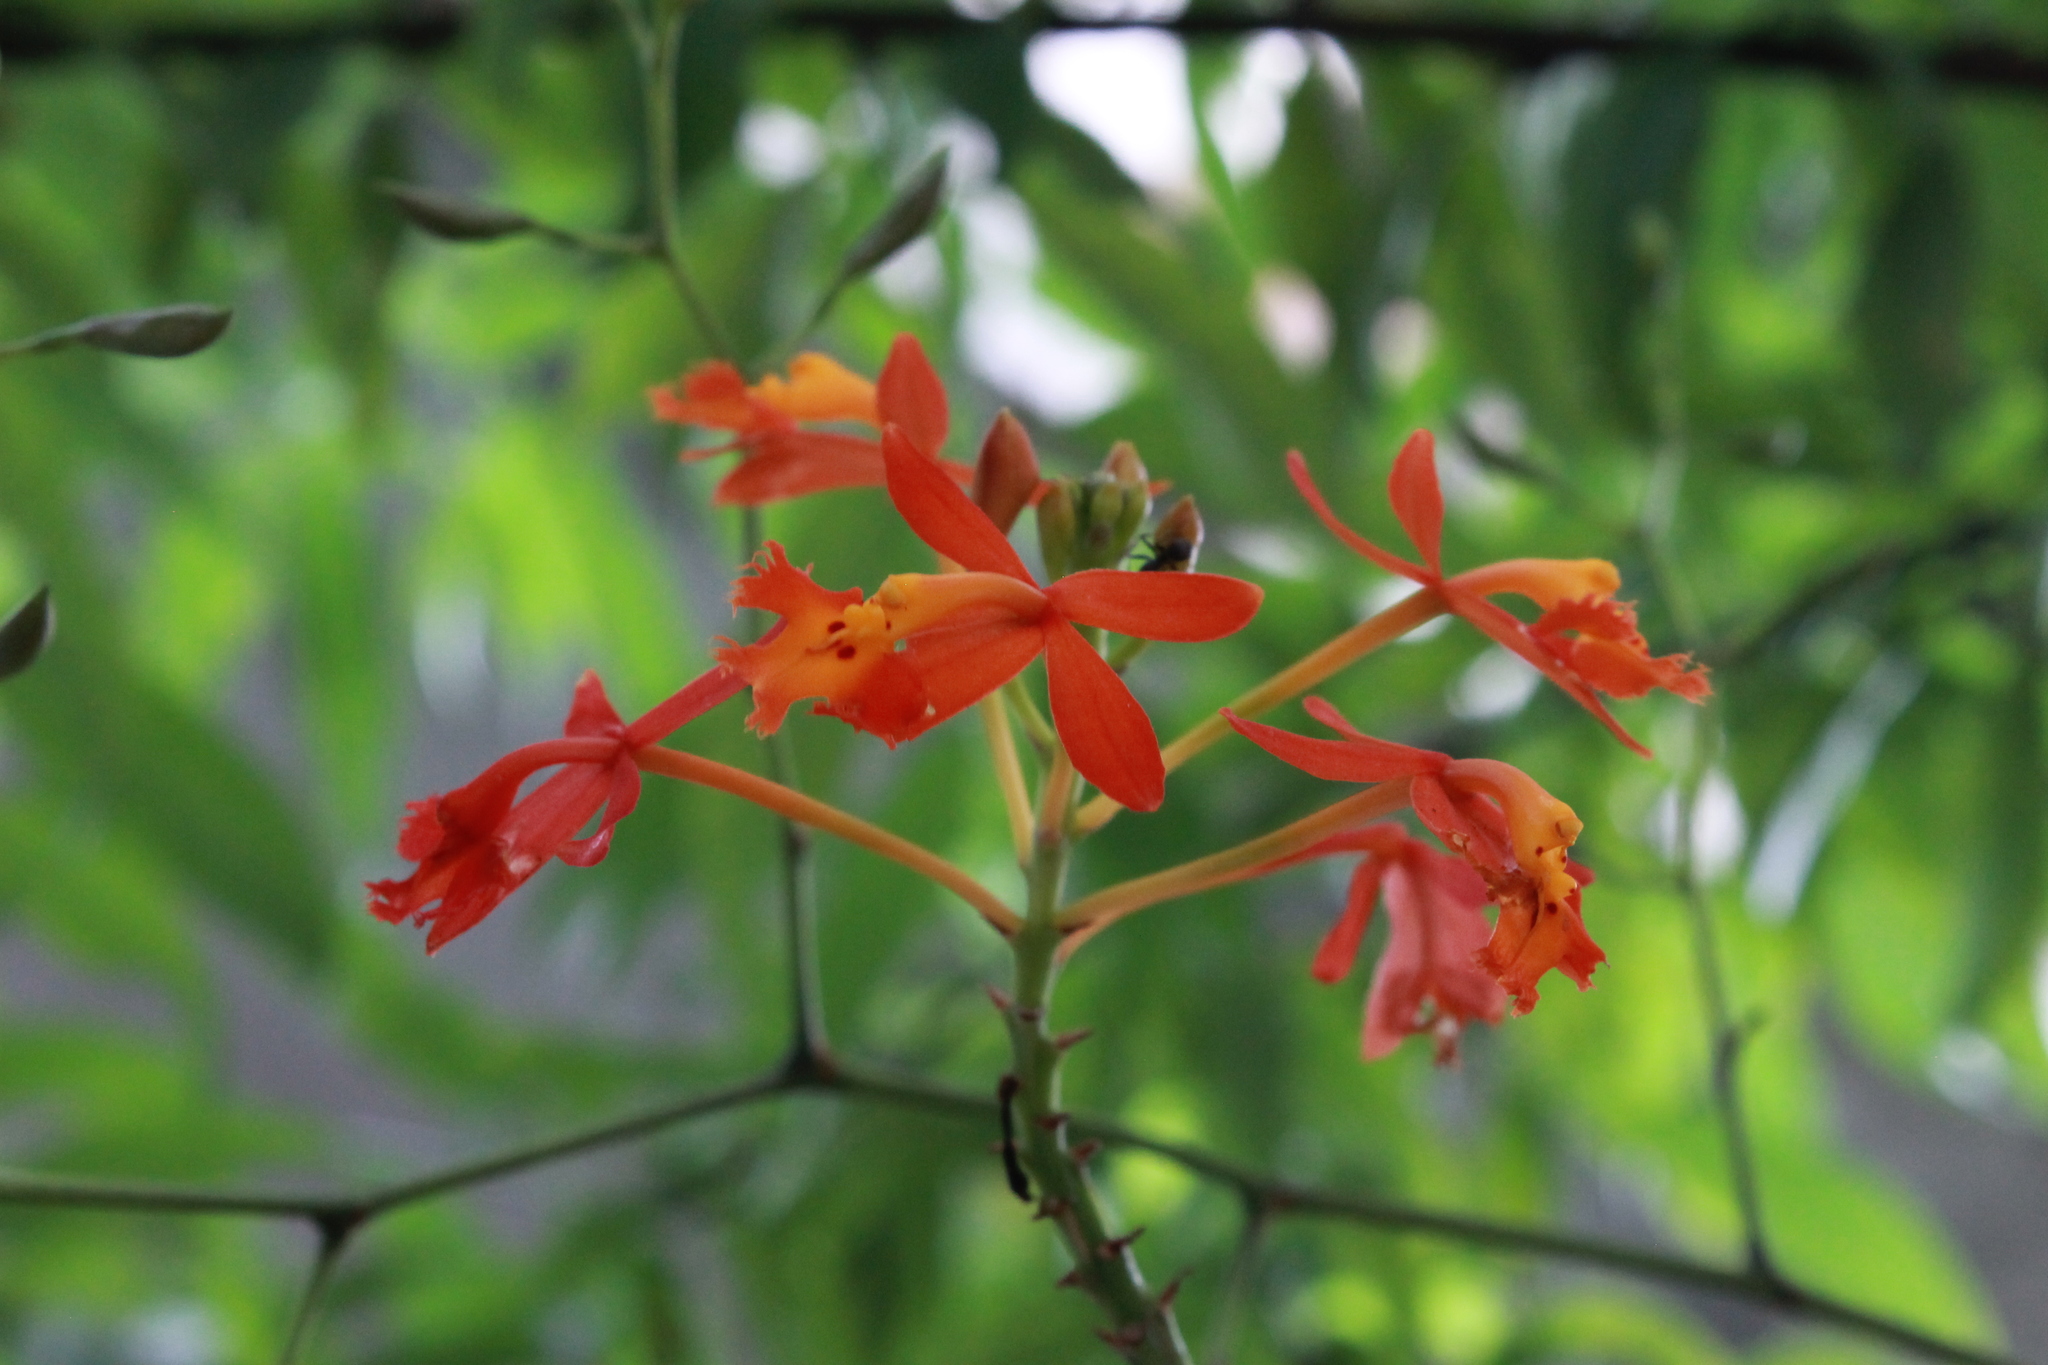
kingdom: Plantae
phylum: Tracheophyta
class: Liliopsida
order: Asparagales
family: Orchidaceae
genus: Epidendrum
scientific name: Epidendrum radicans
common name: Fire star orchid
